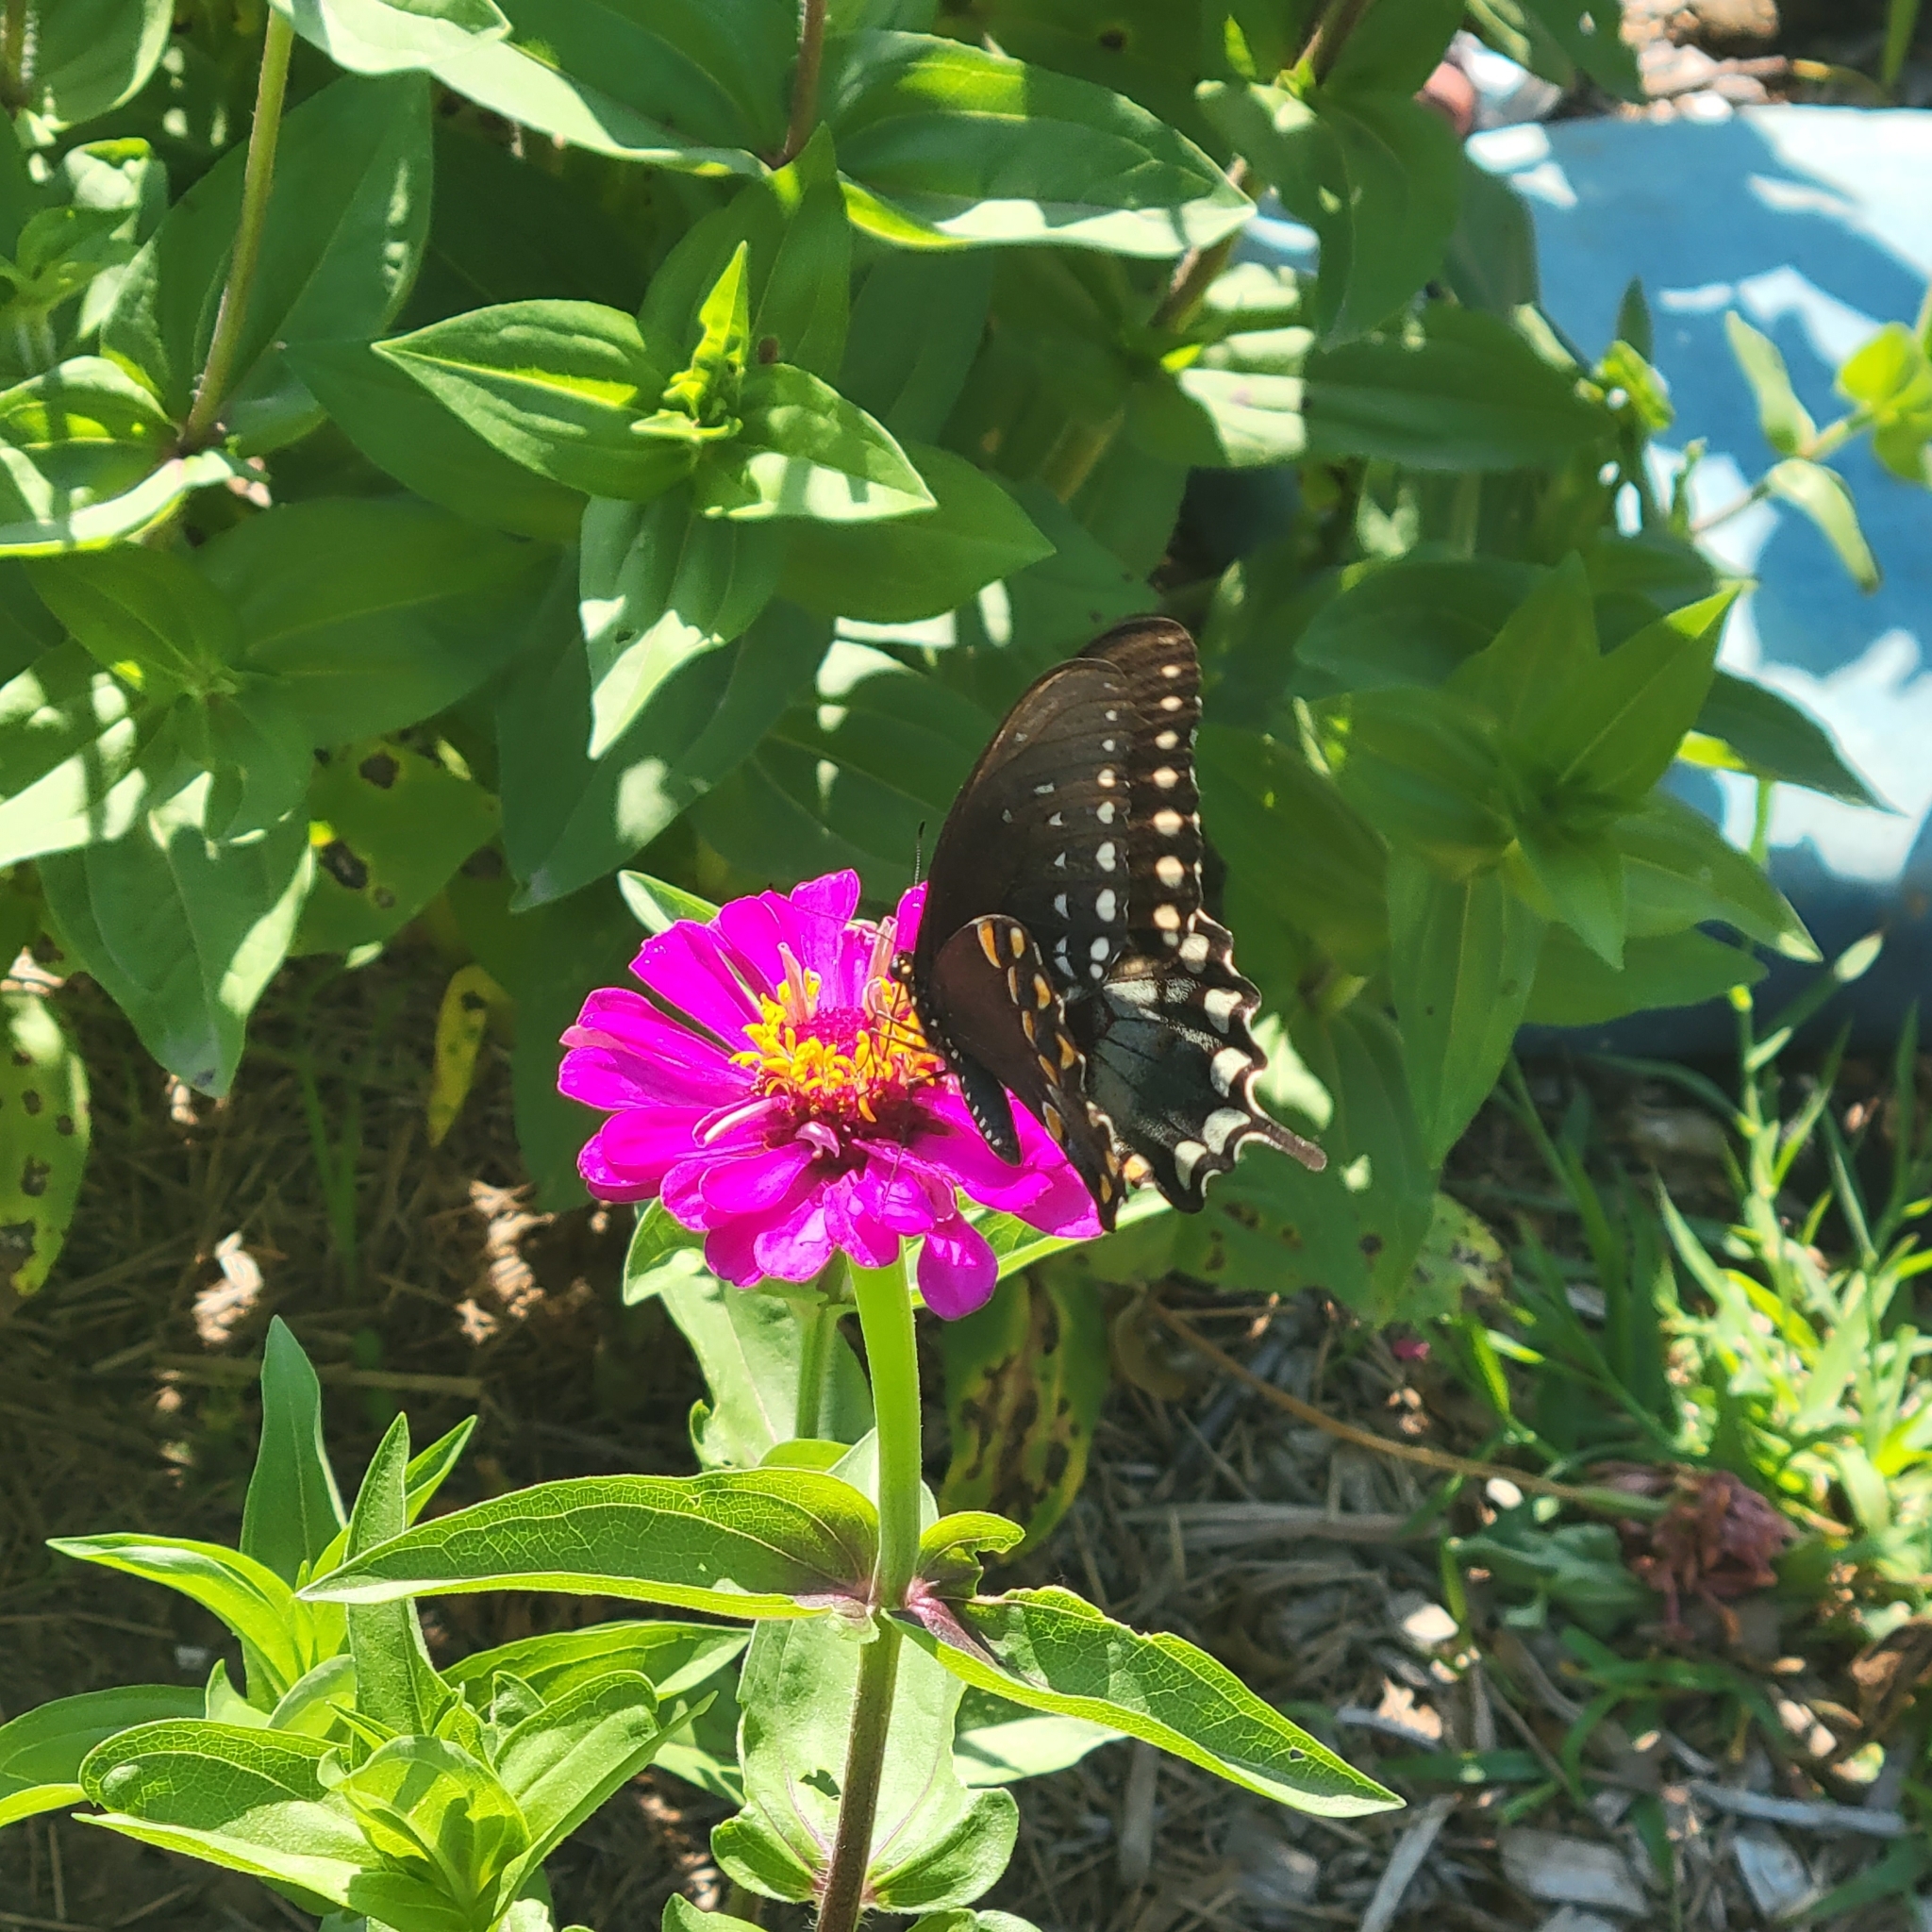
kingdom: Animalia
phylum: Arthropoda
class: Insecta
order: Lepidoptera
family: Papilionidae
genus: Papilio
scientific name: Papilio troilus
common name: Spicebush swallowtail
